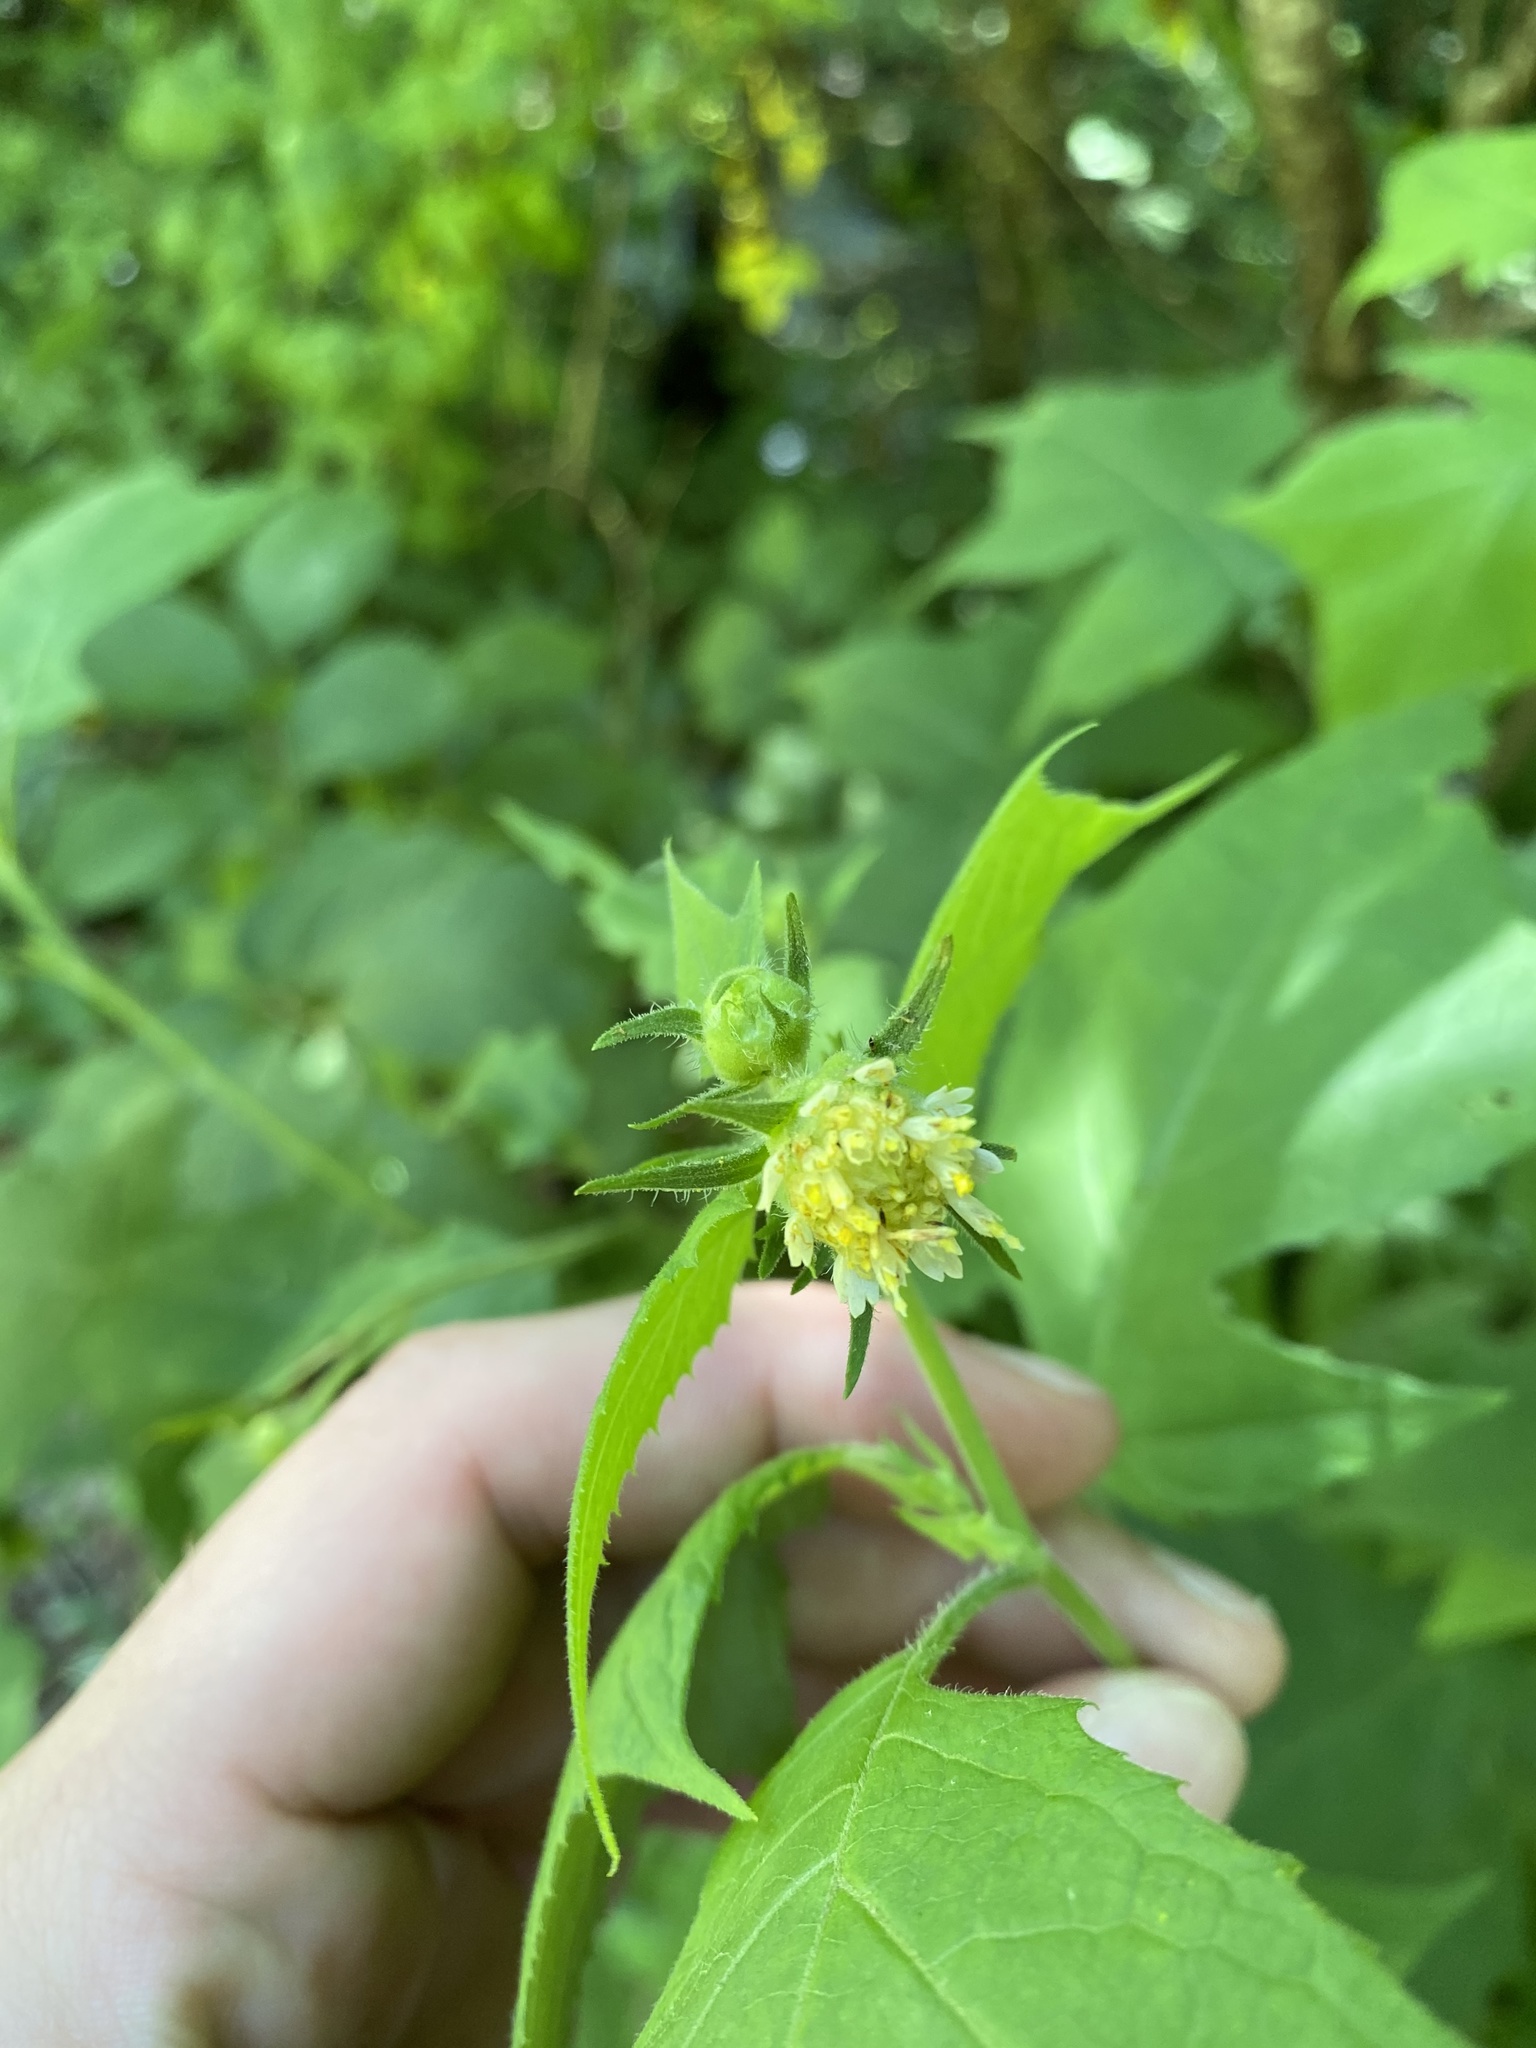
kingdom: Plantae
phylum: Tracheophyta
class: Magnoliopsida
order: Asterales
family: Asteraceae
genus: Polymnia
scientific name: Polymnia canadensis
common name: Pale-flowered leafcup
